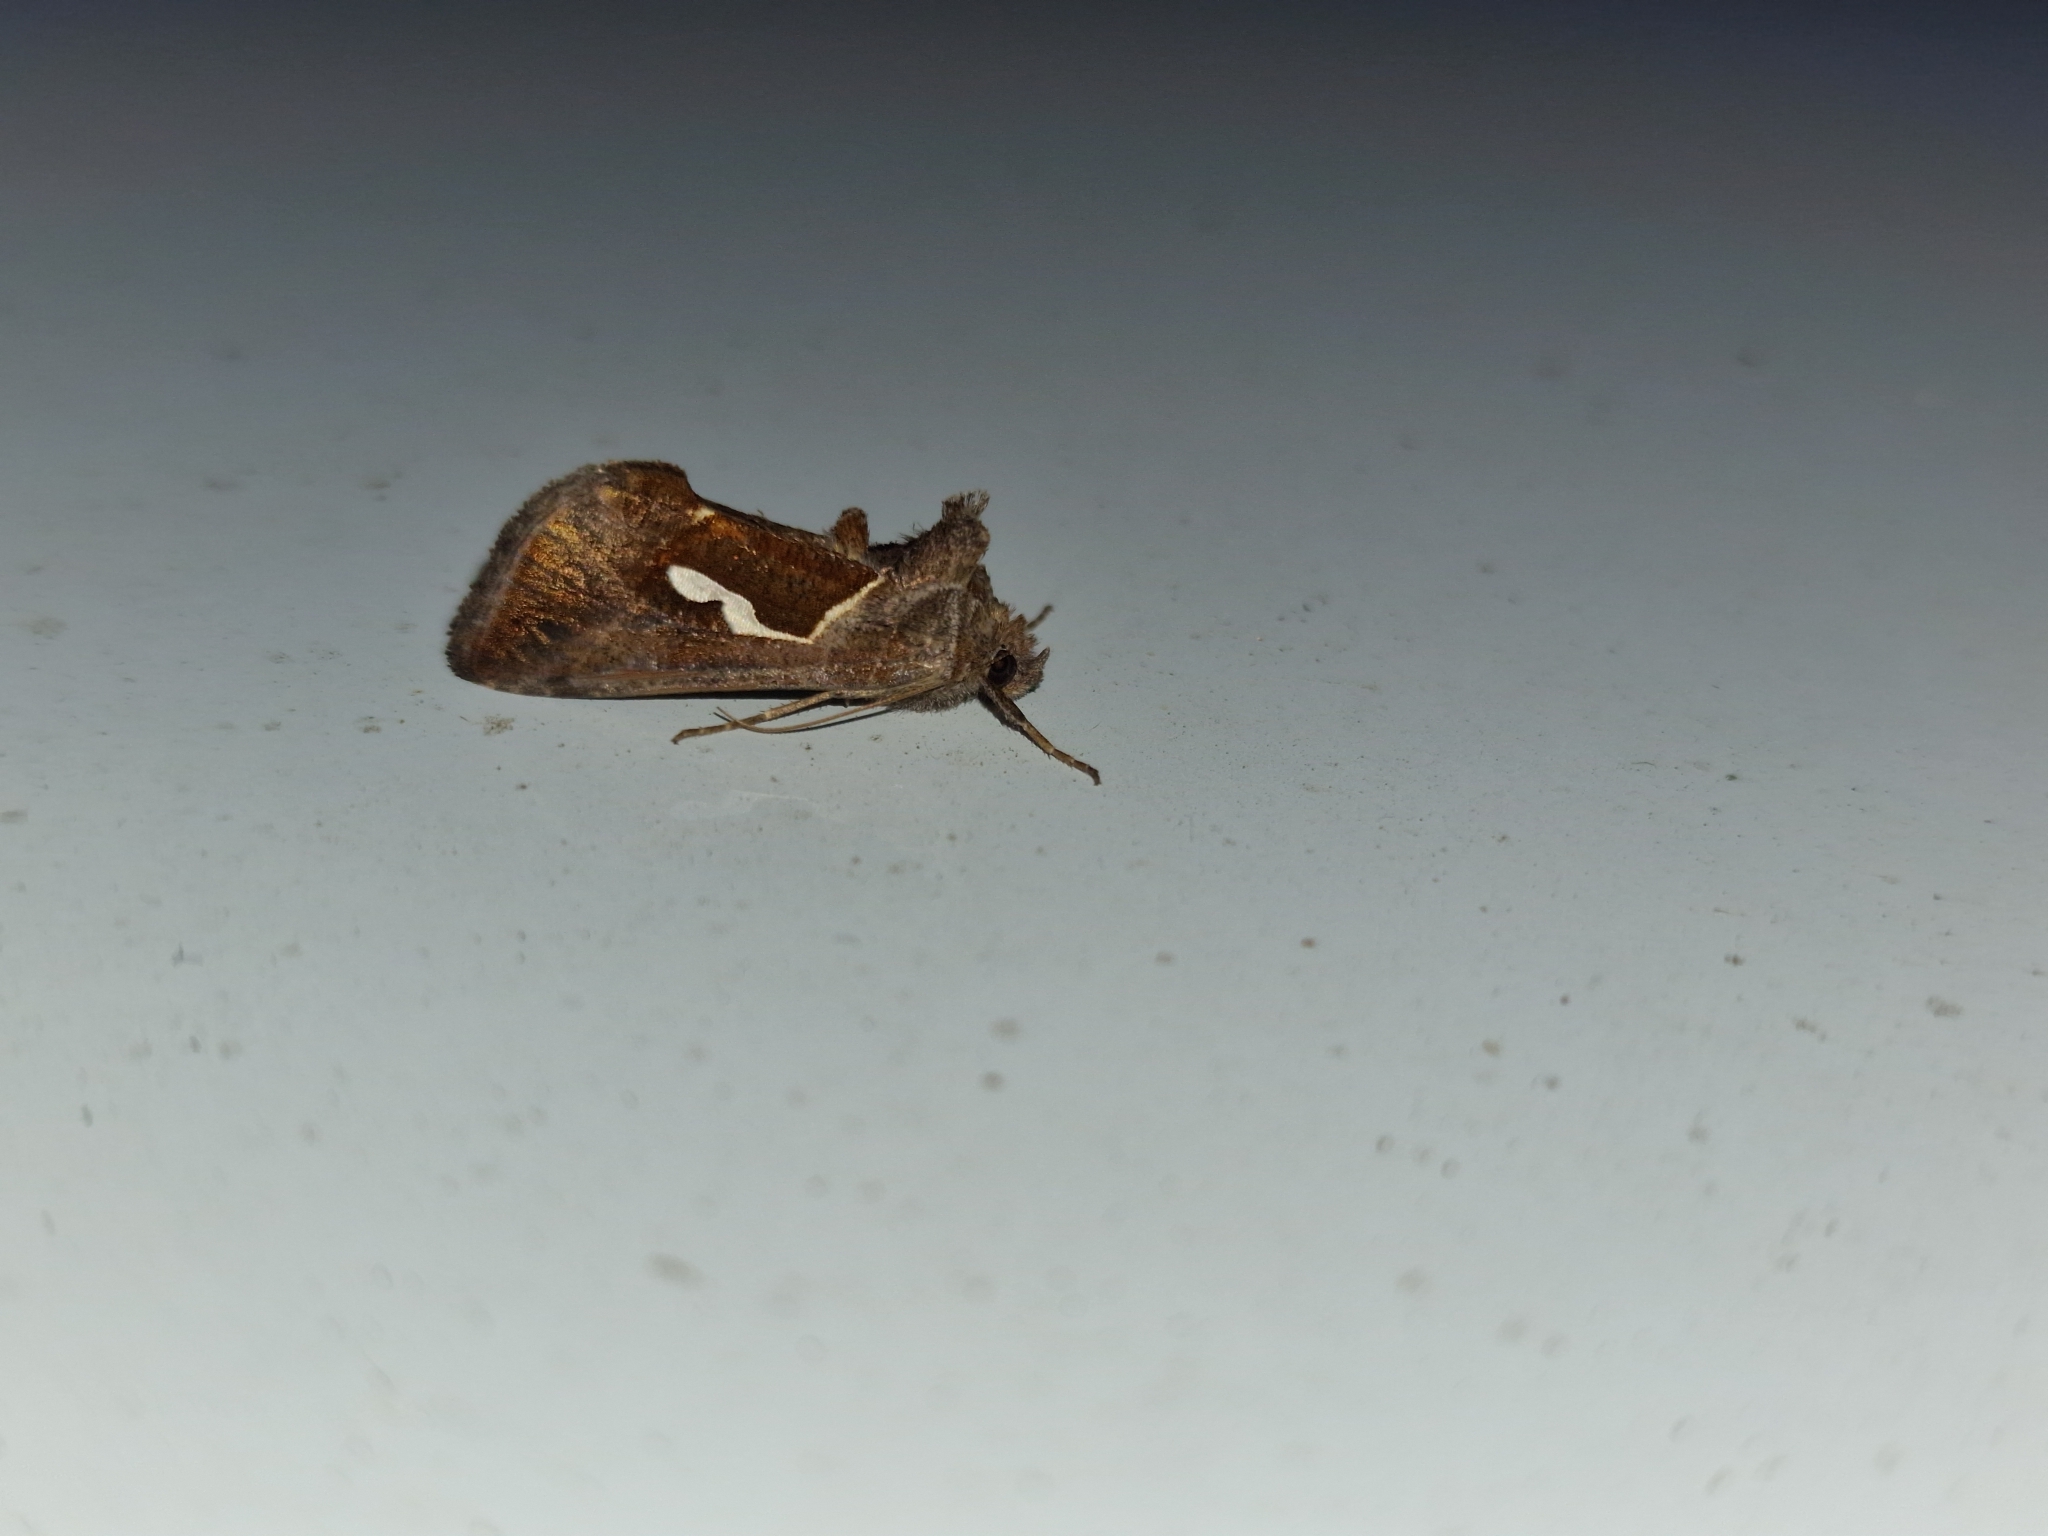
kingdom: Animalia
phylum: Arthropoda
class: Insecta
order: Lepidoptera
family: Noctuidae
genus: Macdunnoughia
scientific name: Macdunnoughia confusa
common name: Dewick's plusia
